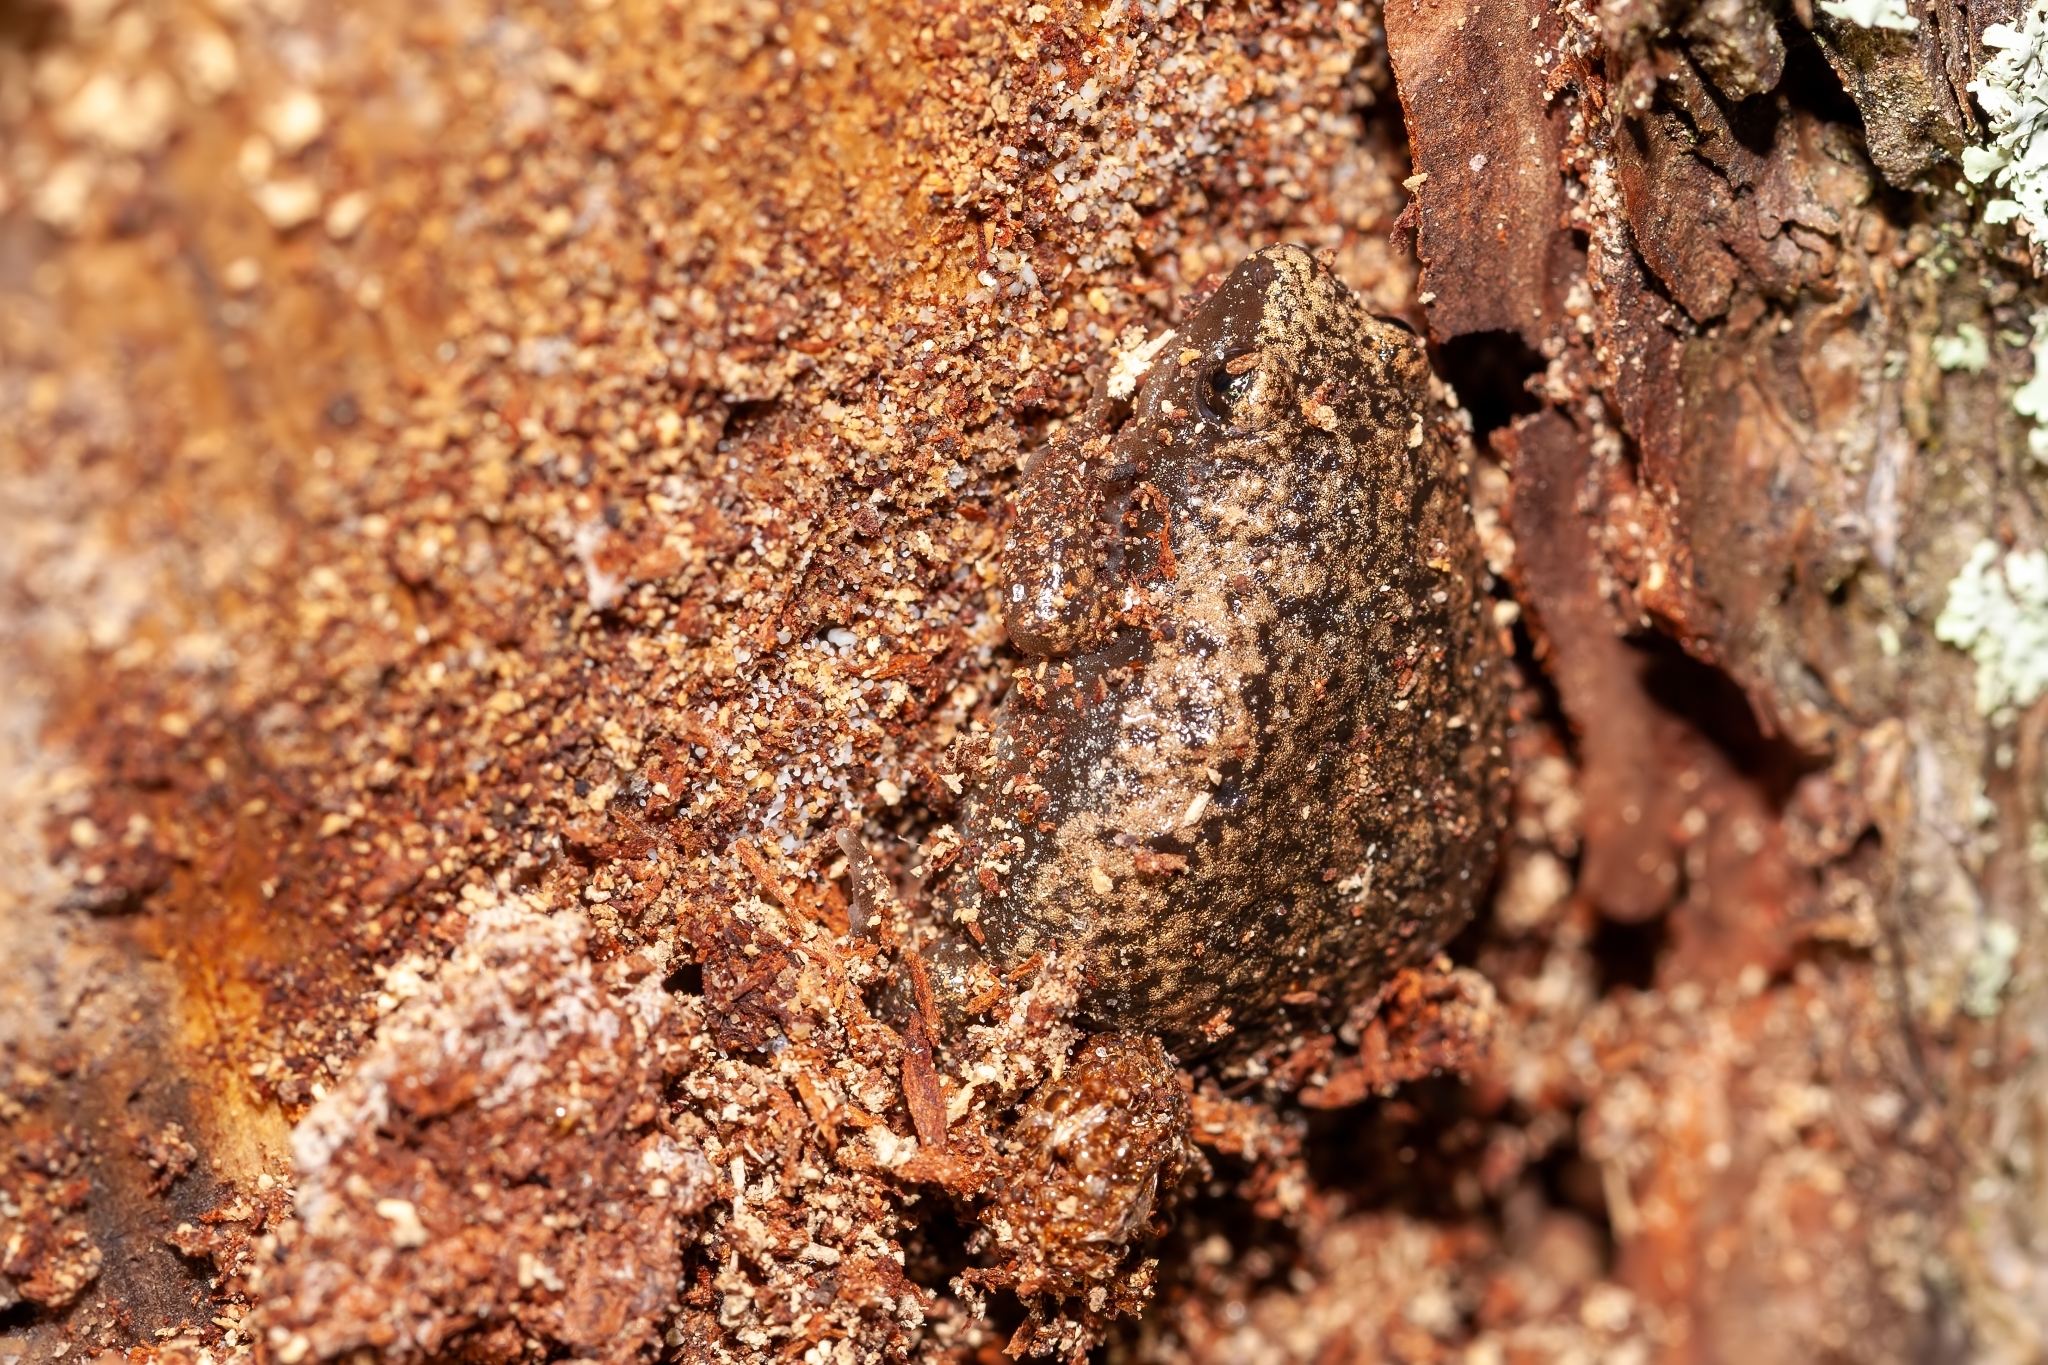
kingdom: Animalia
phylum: Chordata
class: Amphibia
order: Anura
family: Microhylidae
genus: Gastrophryne
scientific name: Gastrophryne carolinensis
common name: Eastern narrowmouth toad
